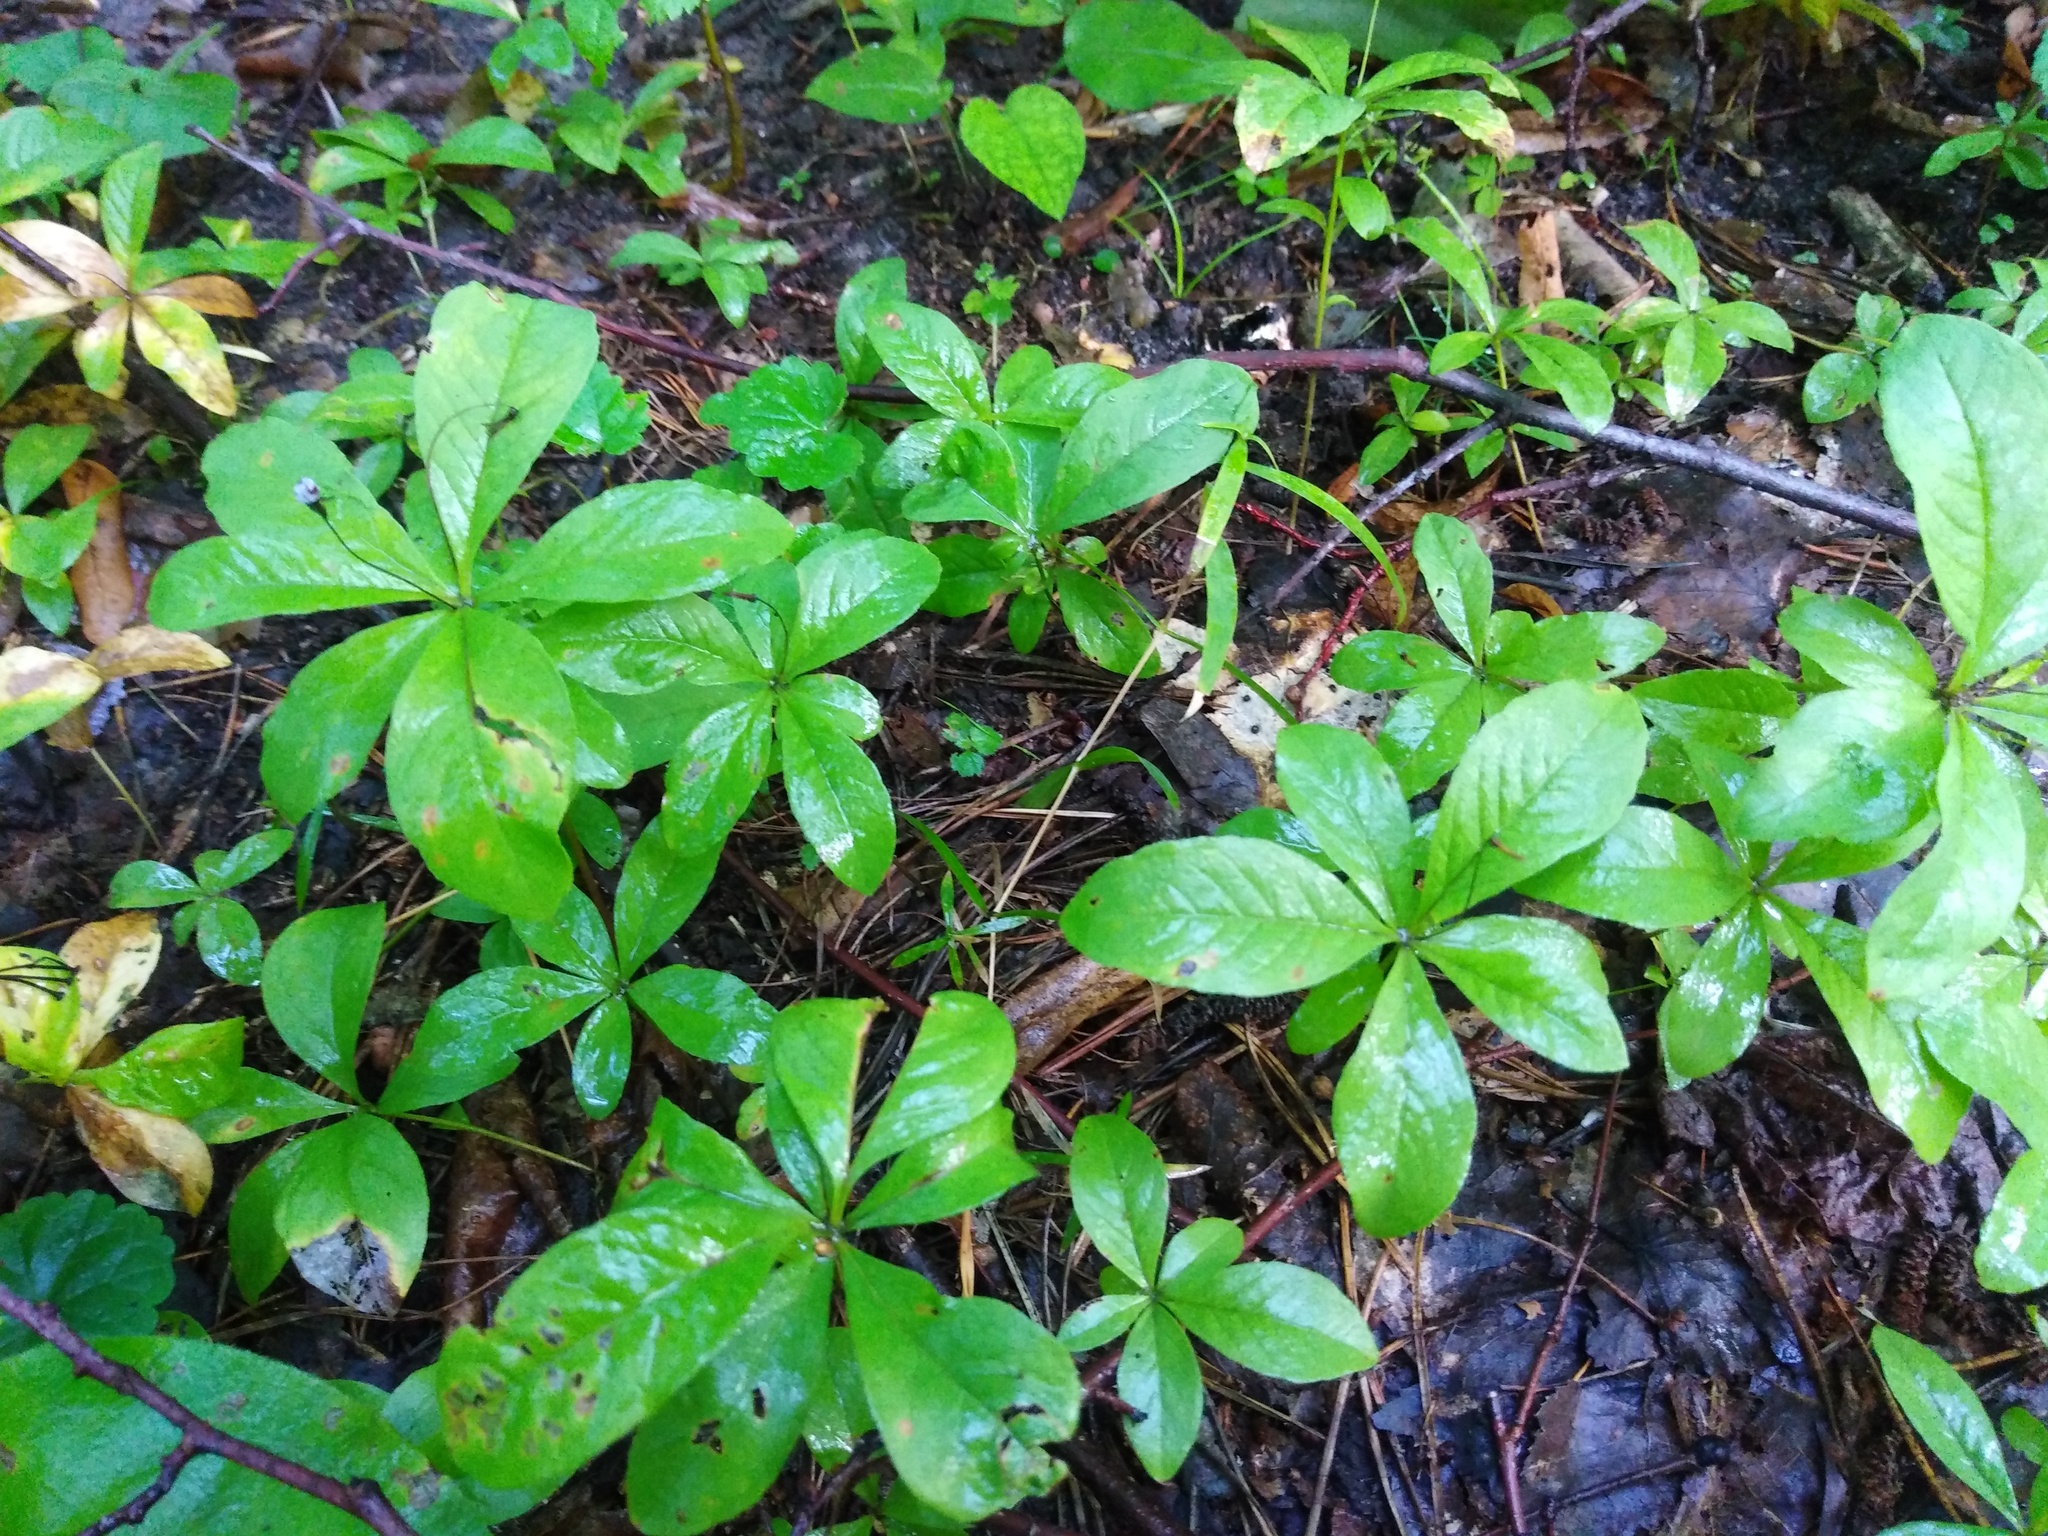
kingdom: Plantae
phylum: Tracheophyta
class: Magnoliopsida
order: Ericales
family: Primulaceae
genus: Lysimachia
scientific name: Lysimachia europaea
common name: Arctic starflower
